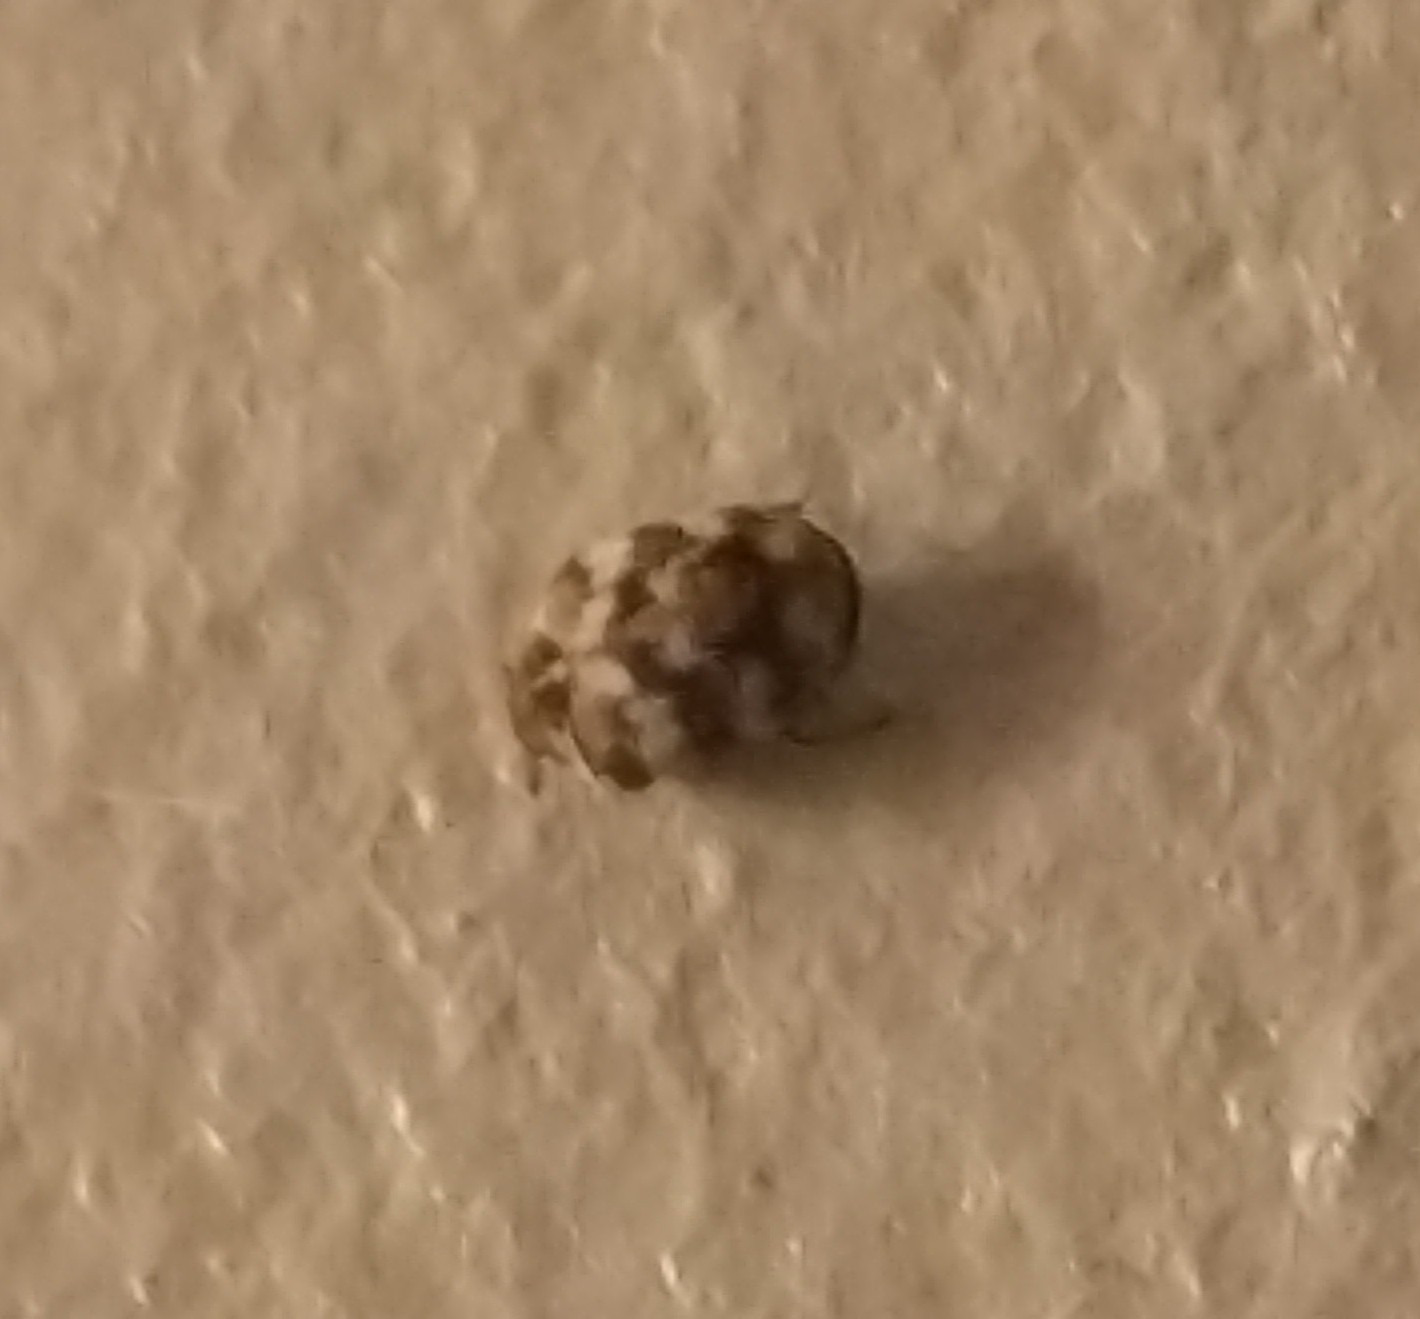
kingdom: Animalia
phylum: Arthropoda
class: Insecta
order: Coleoptera
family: Dermestidae
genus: Anthrenus
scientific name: Anthrenus verbasci
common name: Varied carpet beetle
